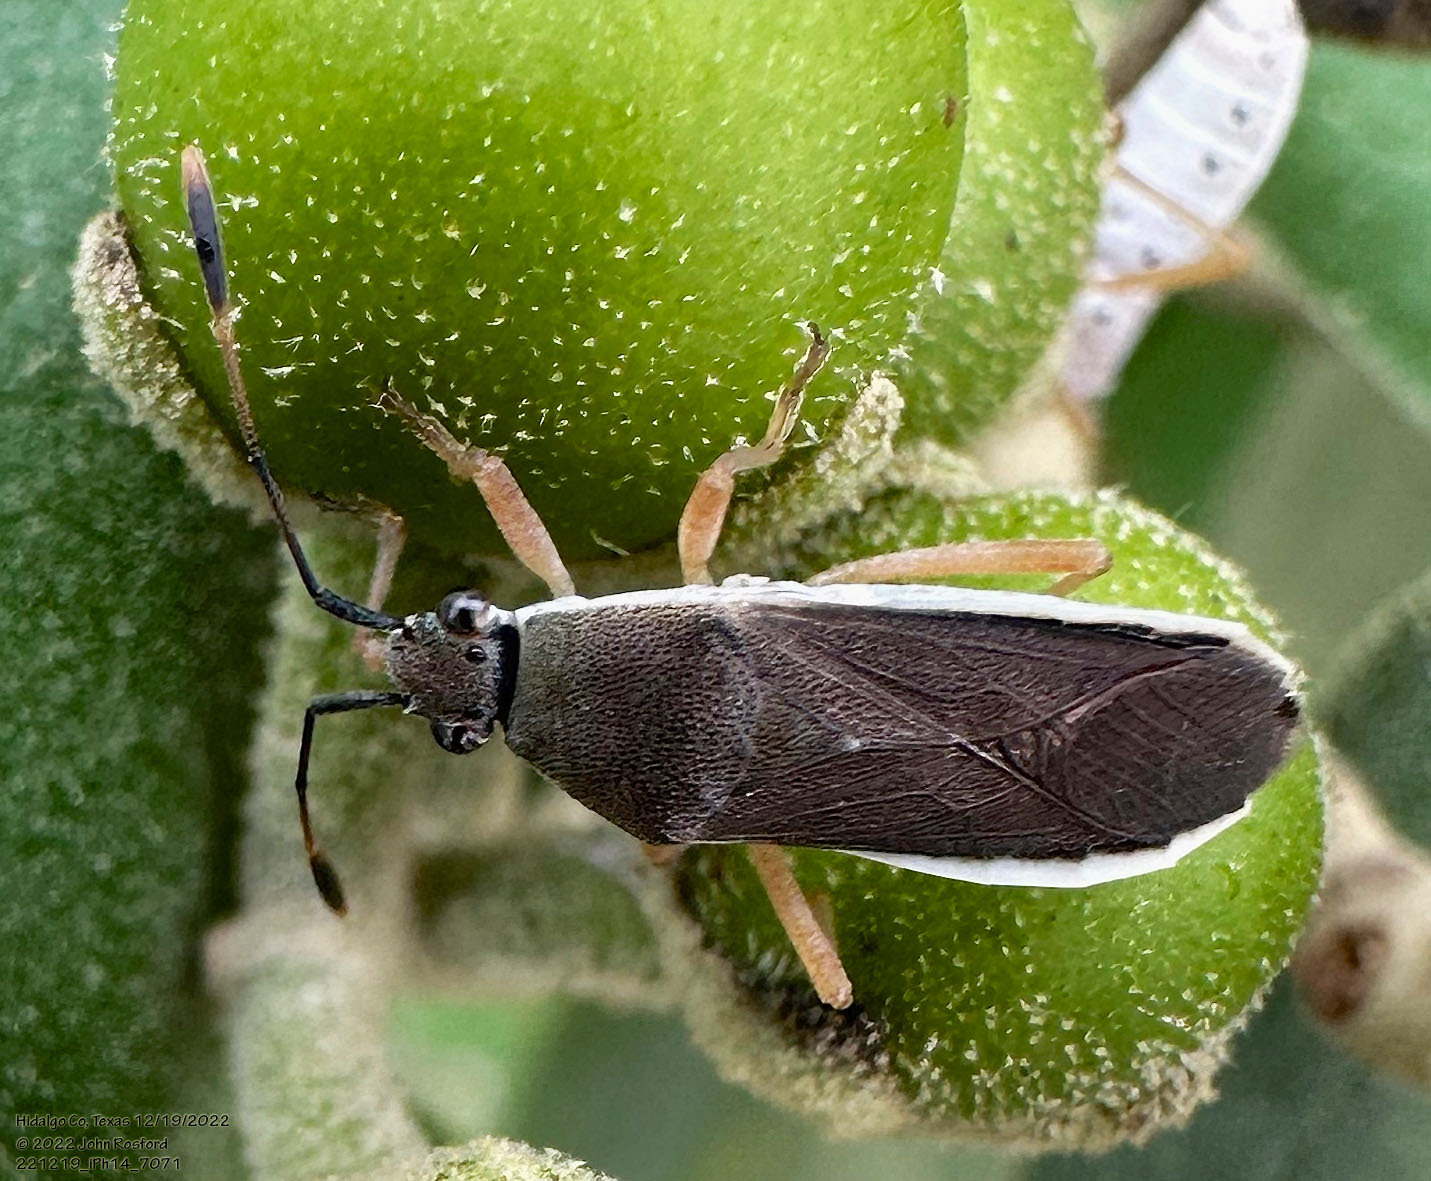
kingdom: Animalia
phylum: Arthropoda
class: Insecta
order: Hemiptera
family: Coreidae
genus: Catorhintha
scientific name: Catorhintha flava
